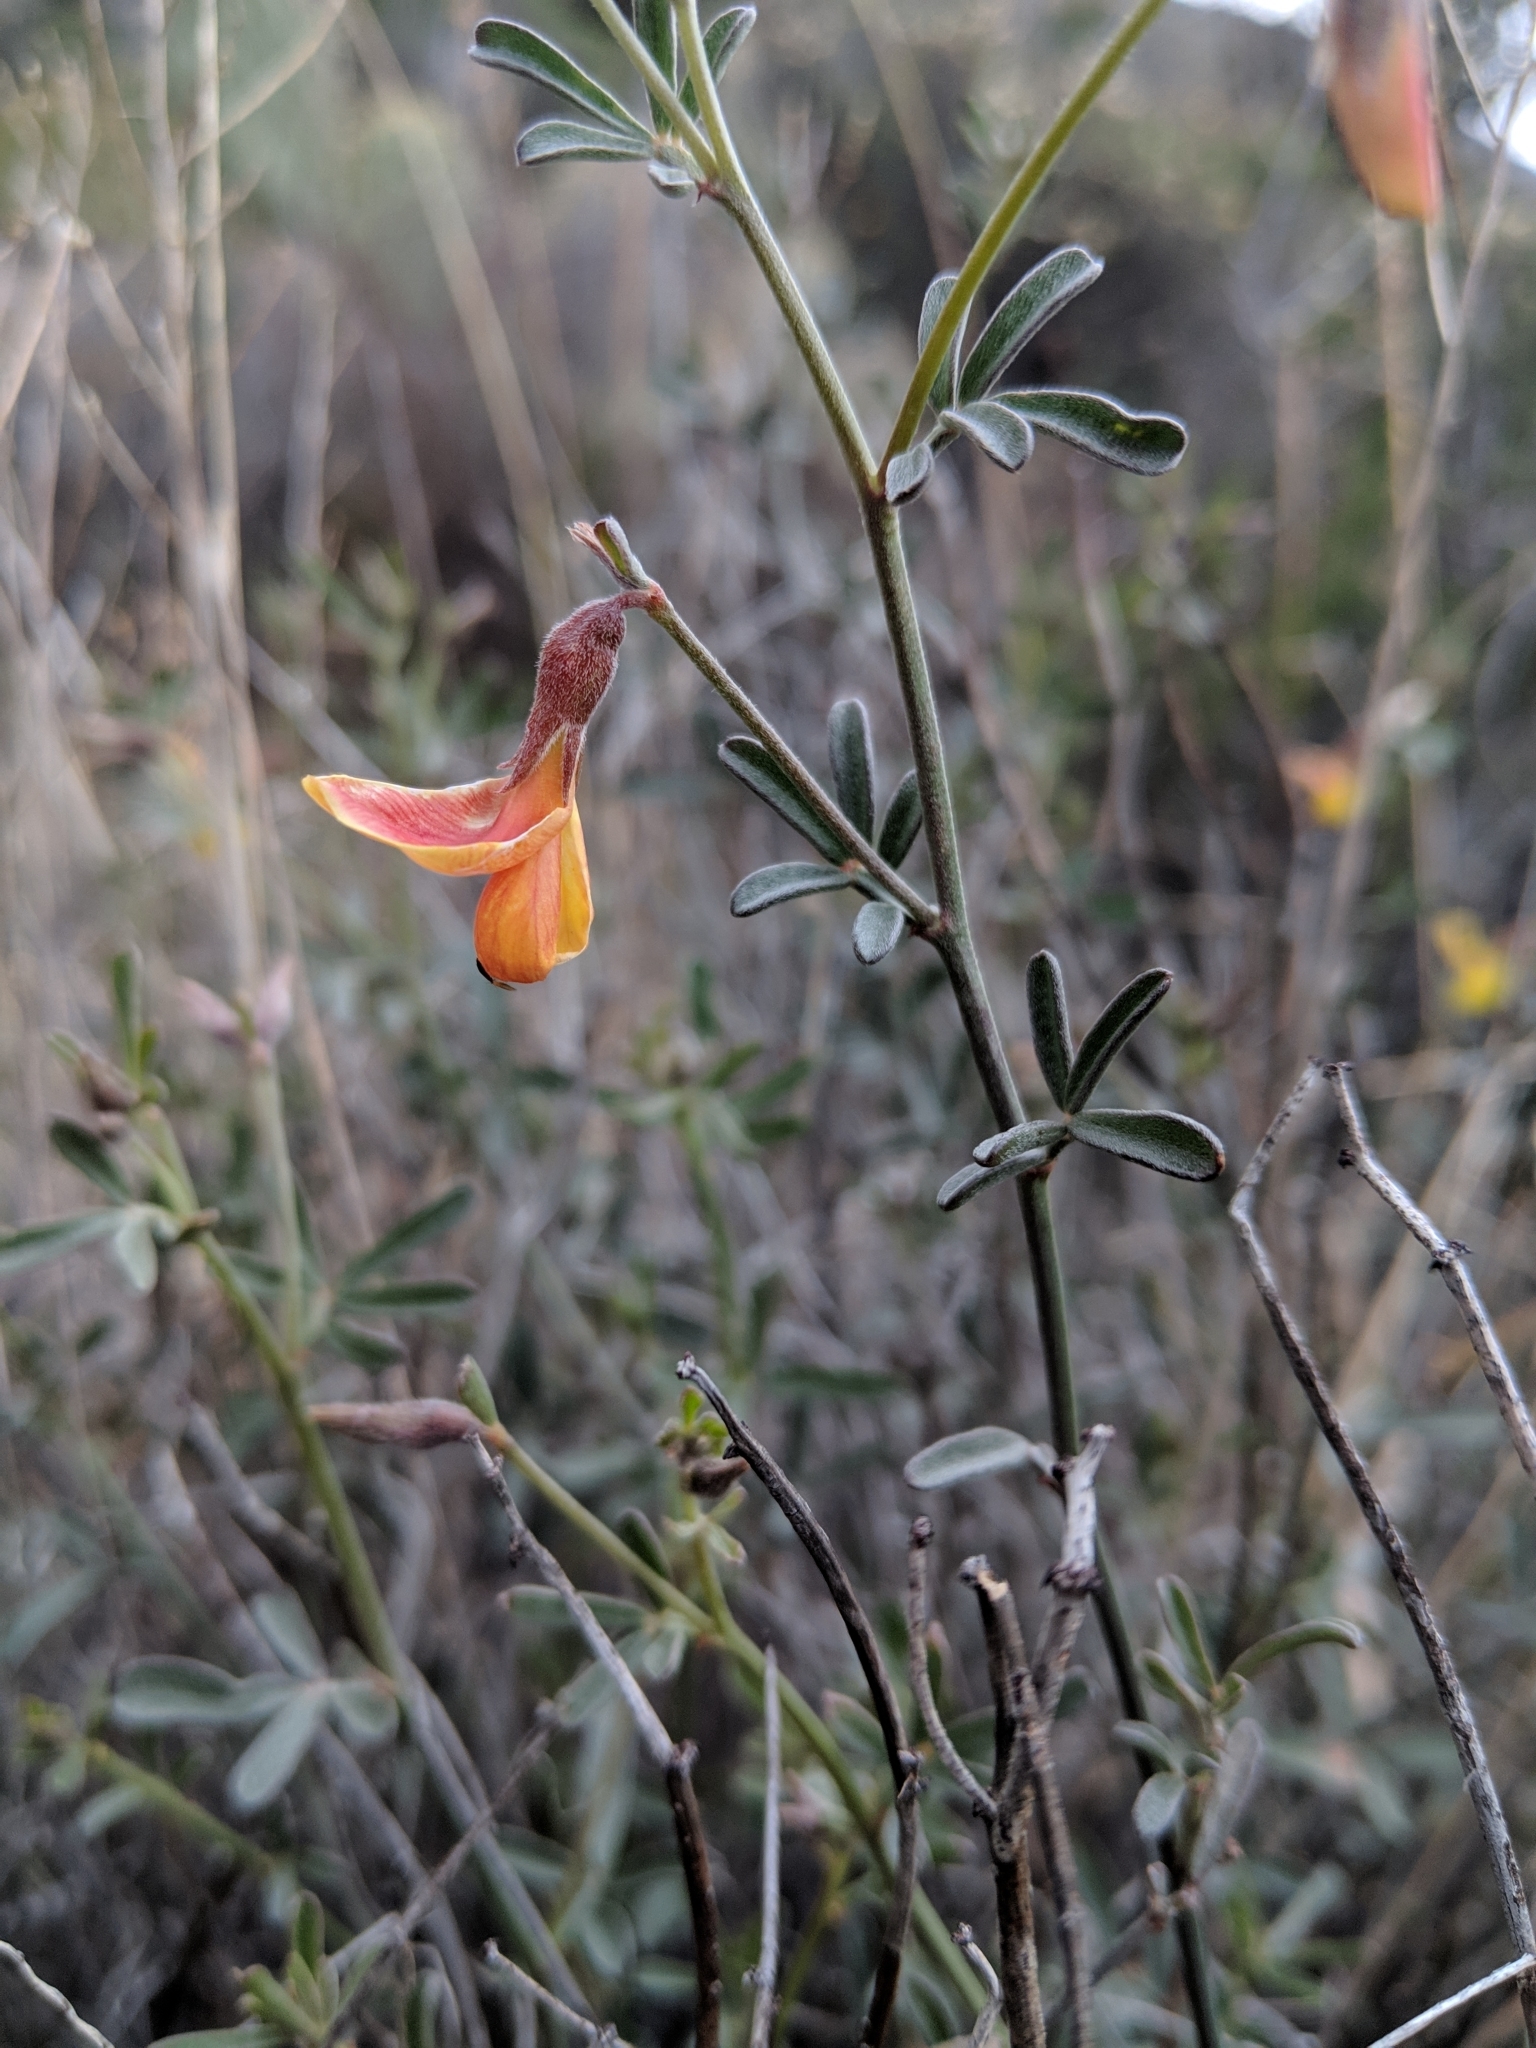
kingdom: Plantae
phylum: Tracheophyta
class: Magnoliopsida
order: Fabales
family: Fabaceae
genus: Acmispon
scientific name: Acmispon rigidus
